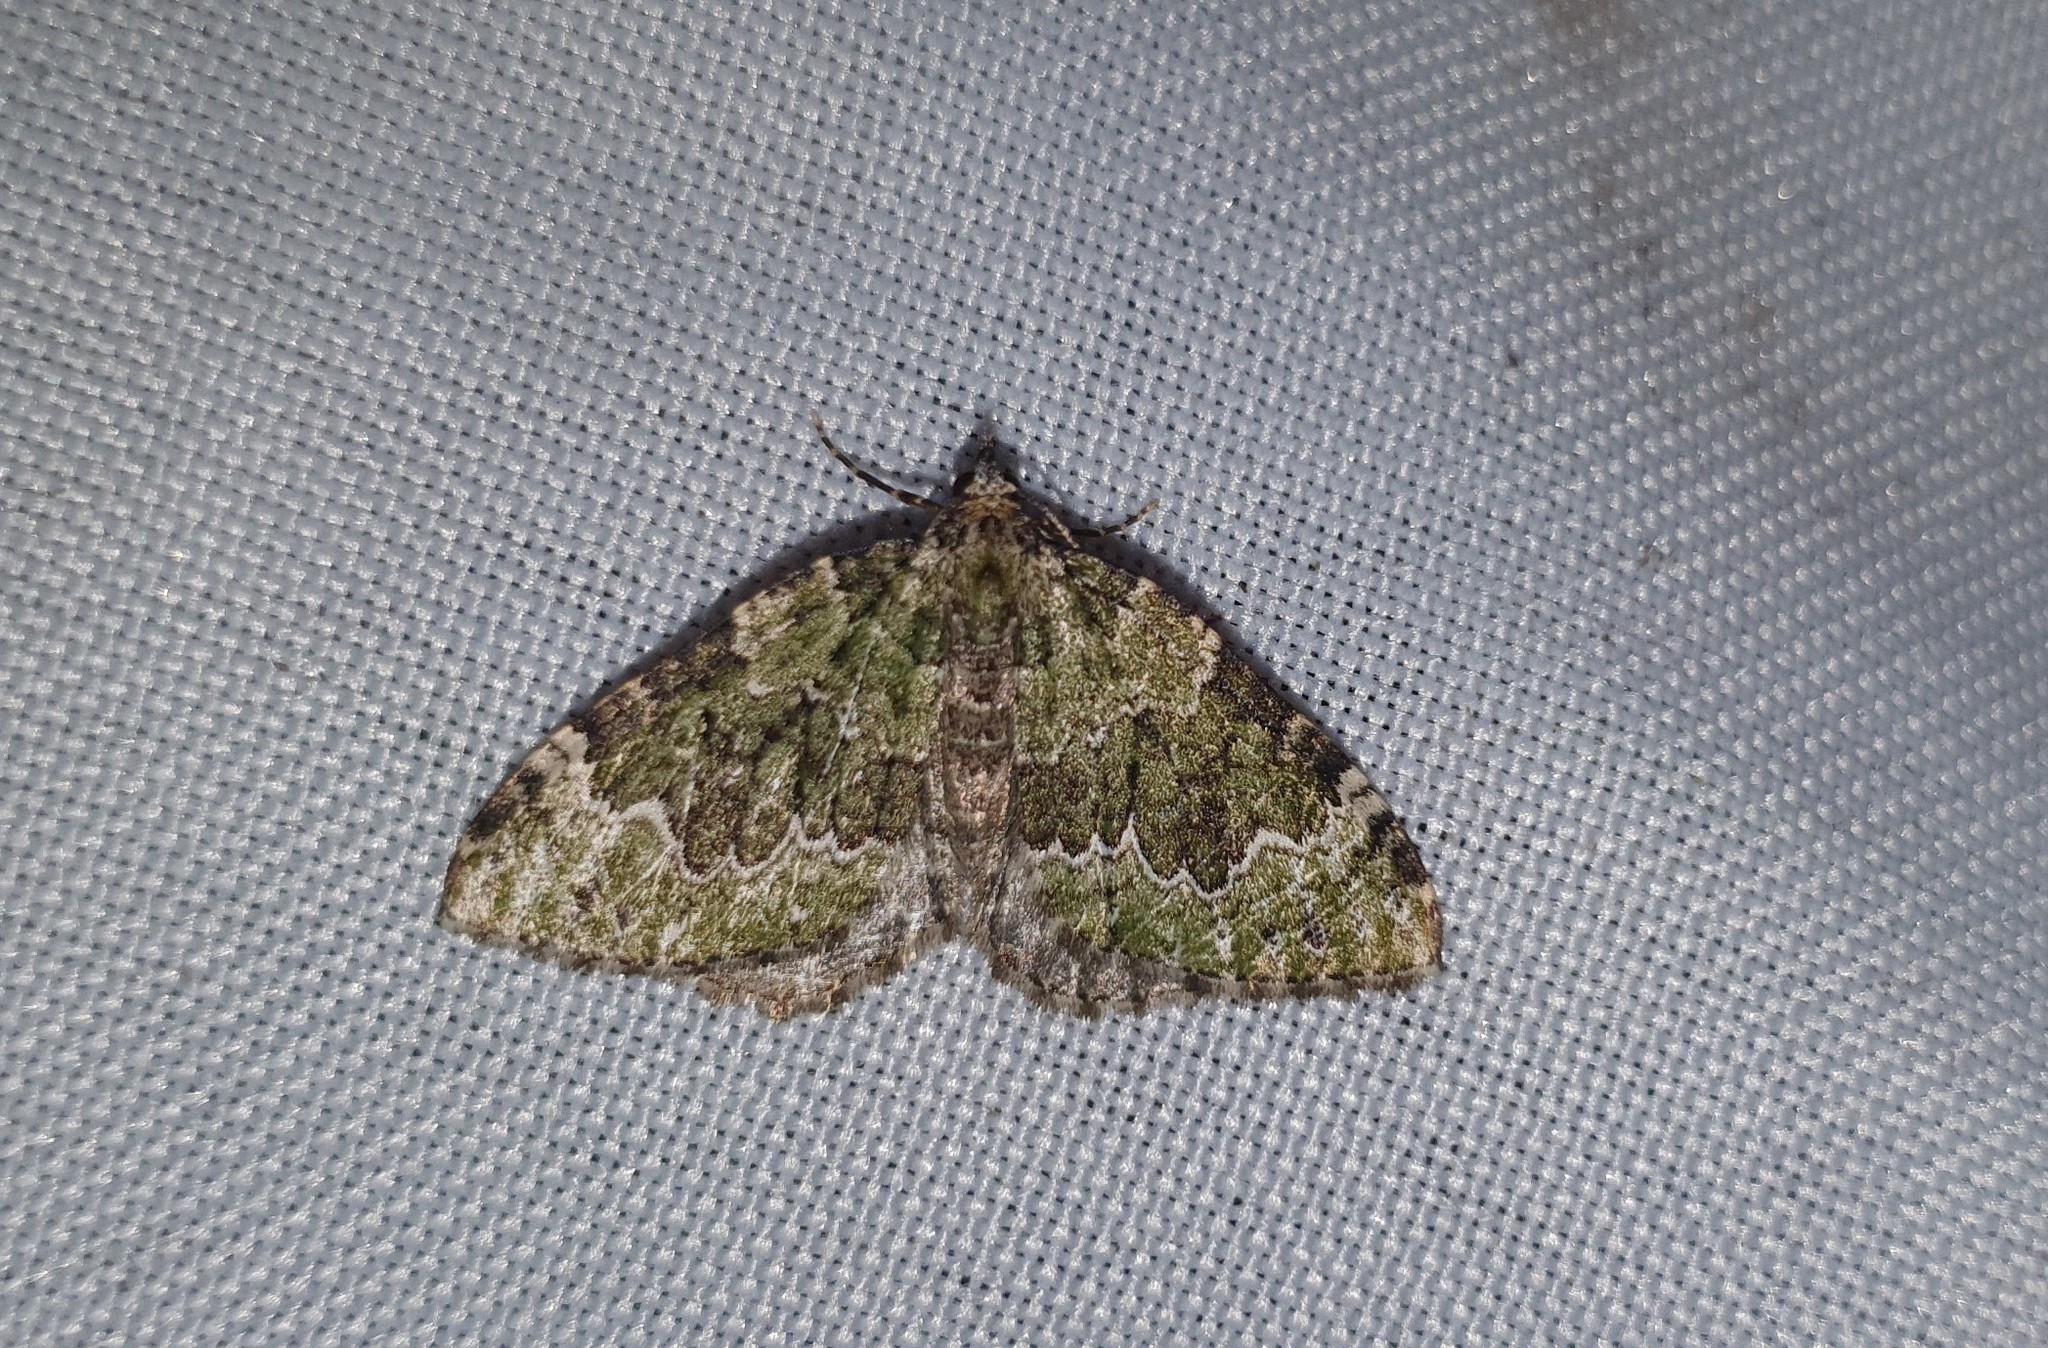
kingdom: Animalia
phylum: Arthropoda
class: Insecta
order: Lepidoptera
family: Geometridae
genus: Colostygia
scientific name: Colostygia olivata
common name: Beech-green carpet
